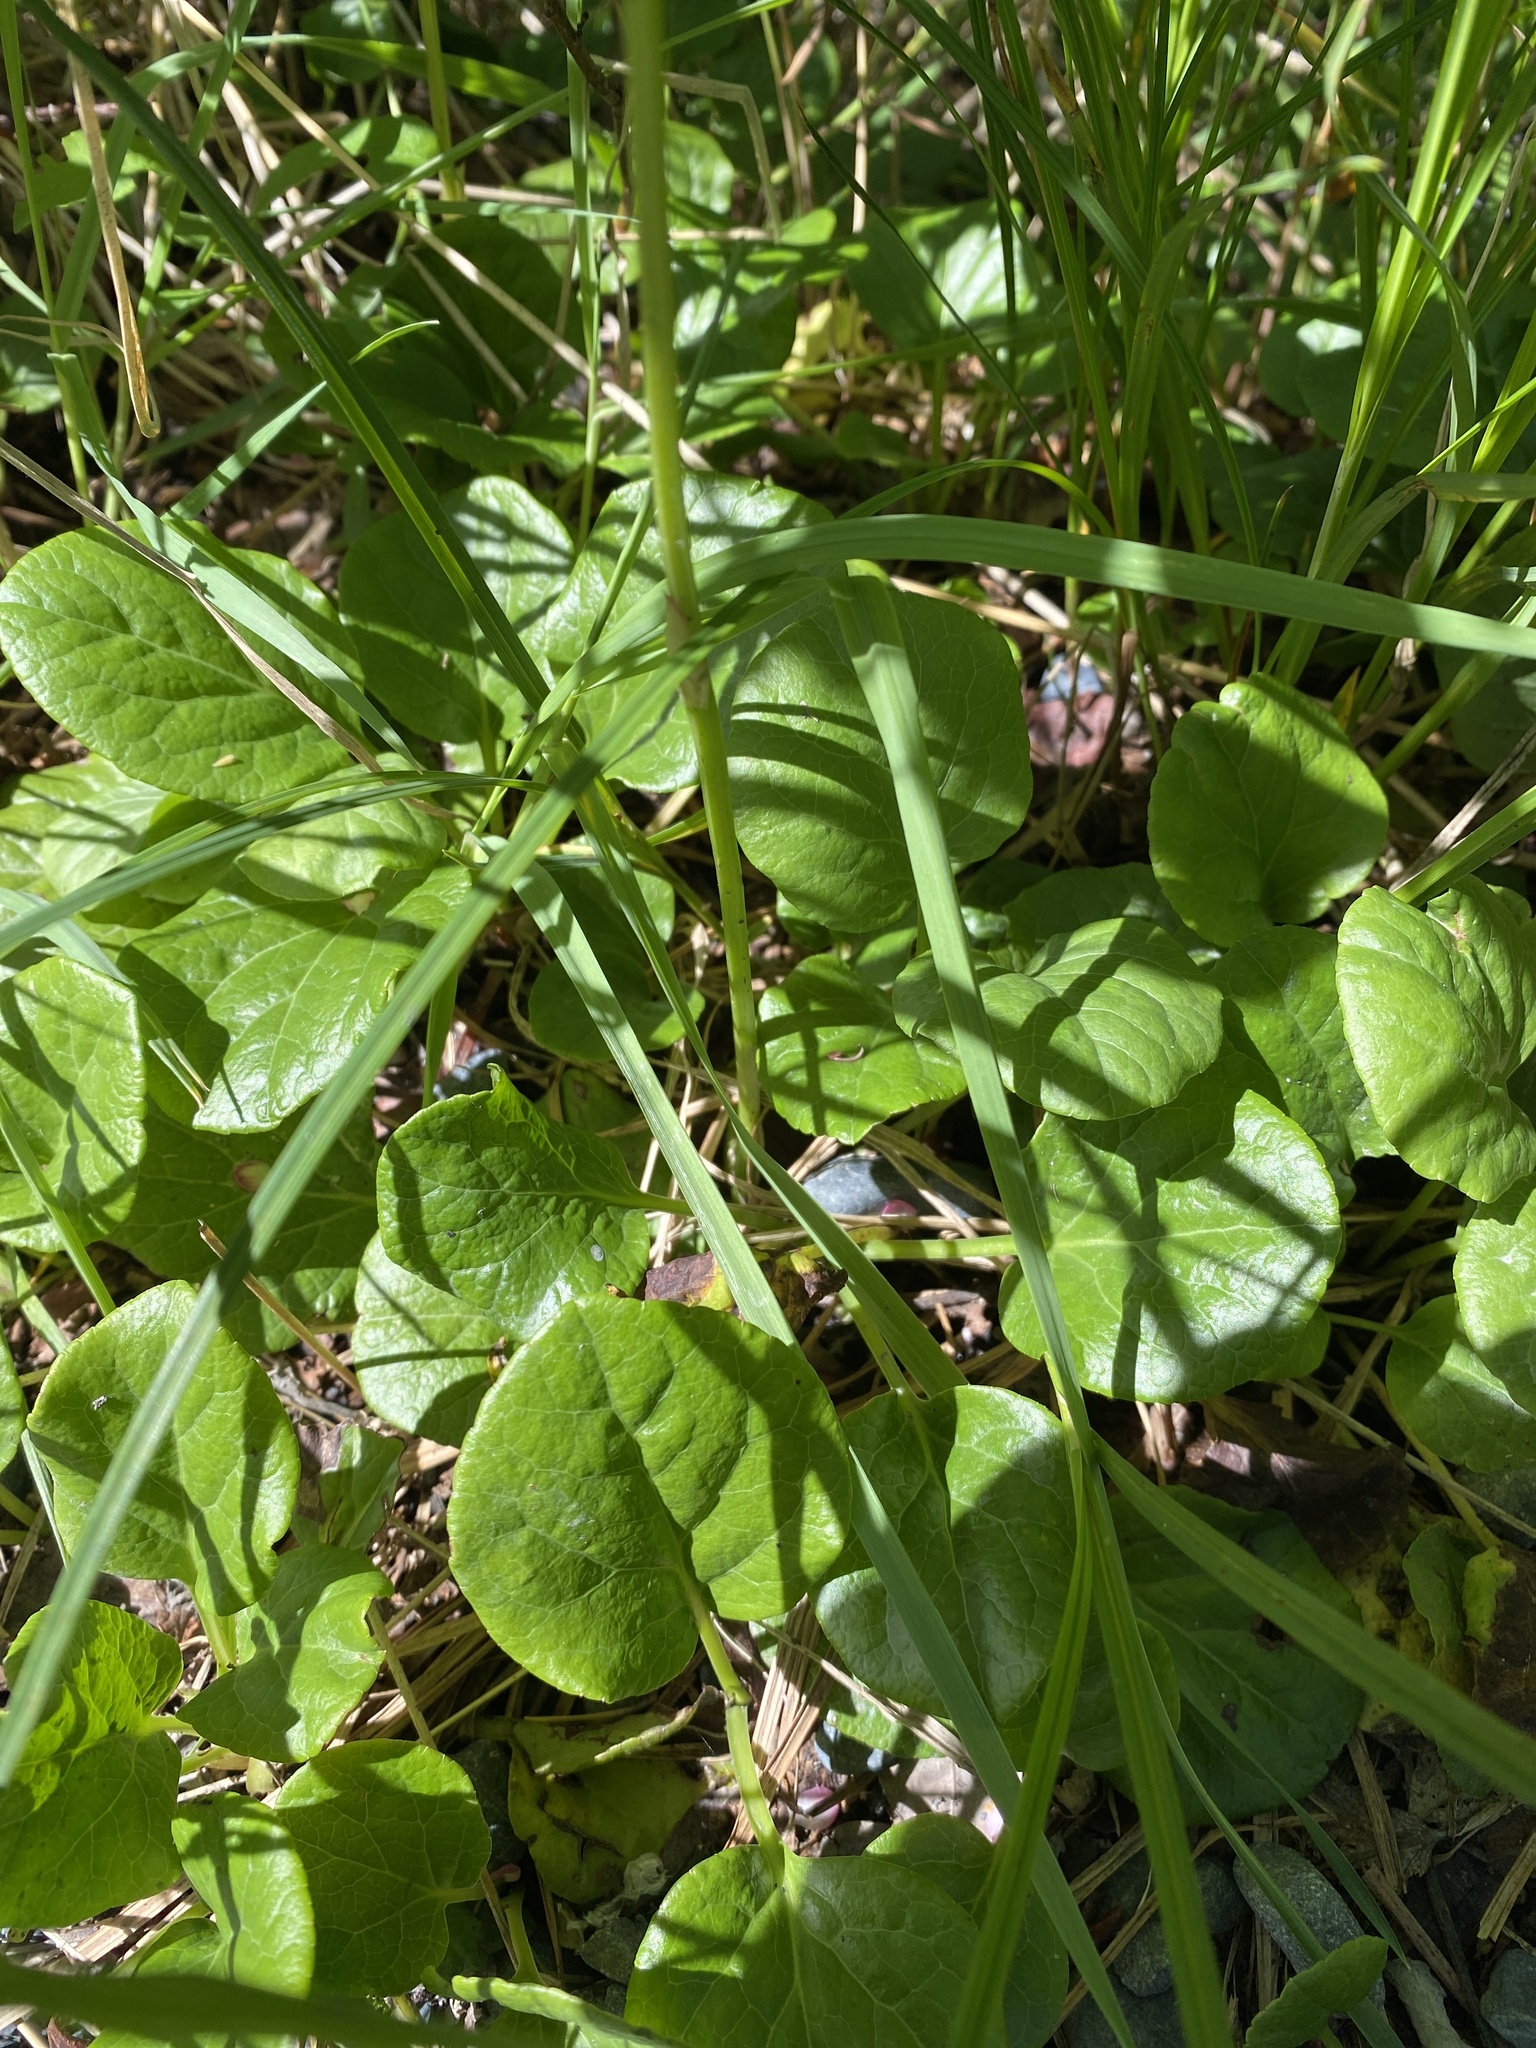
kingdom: Plantae
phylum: Tracheophyta
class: Magnoliopsida
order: Ericales
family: Ericaceae
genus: Pyrola
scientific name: Pyrola asarifolia
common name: Bog wintergreen
